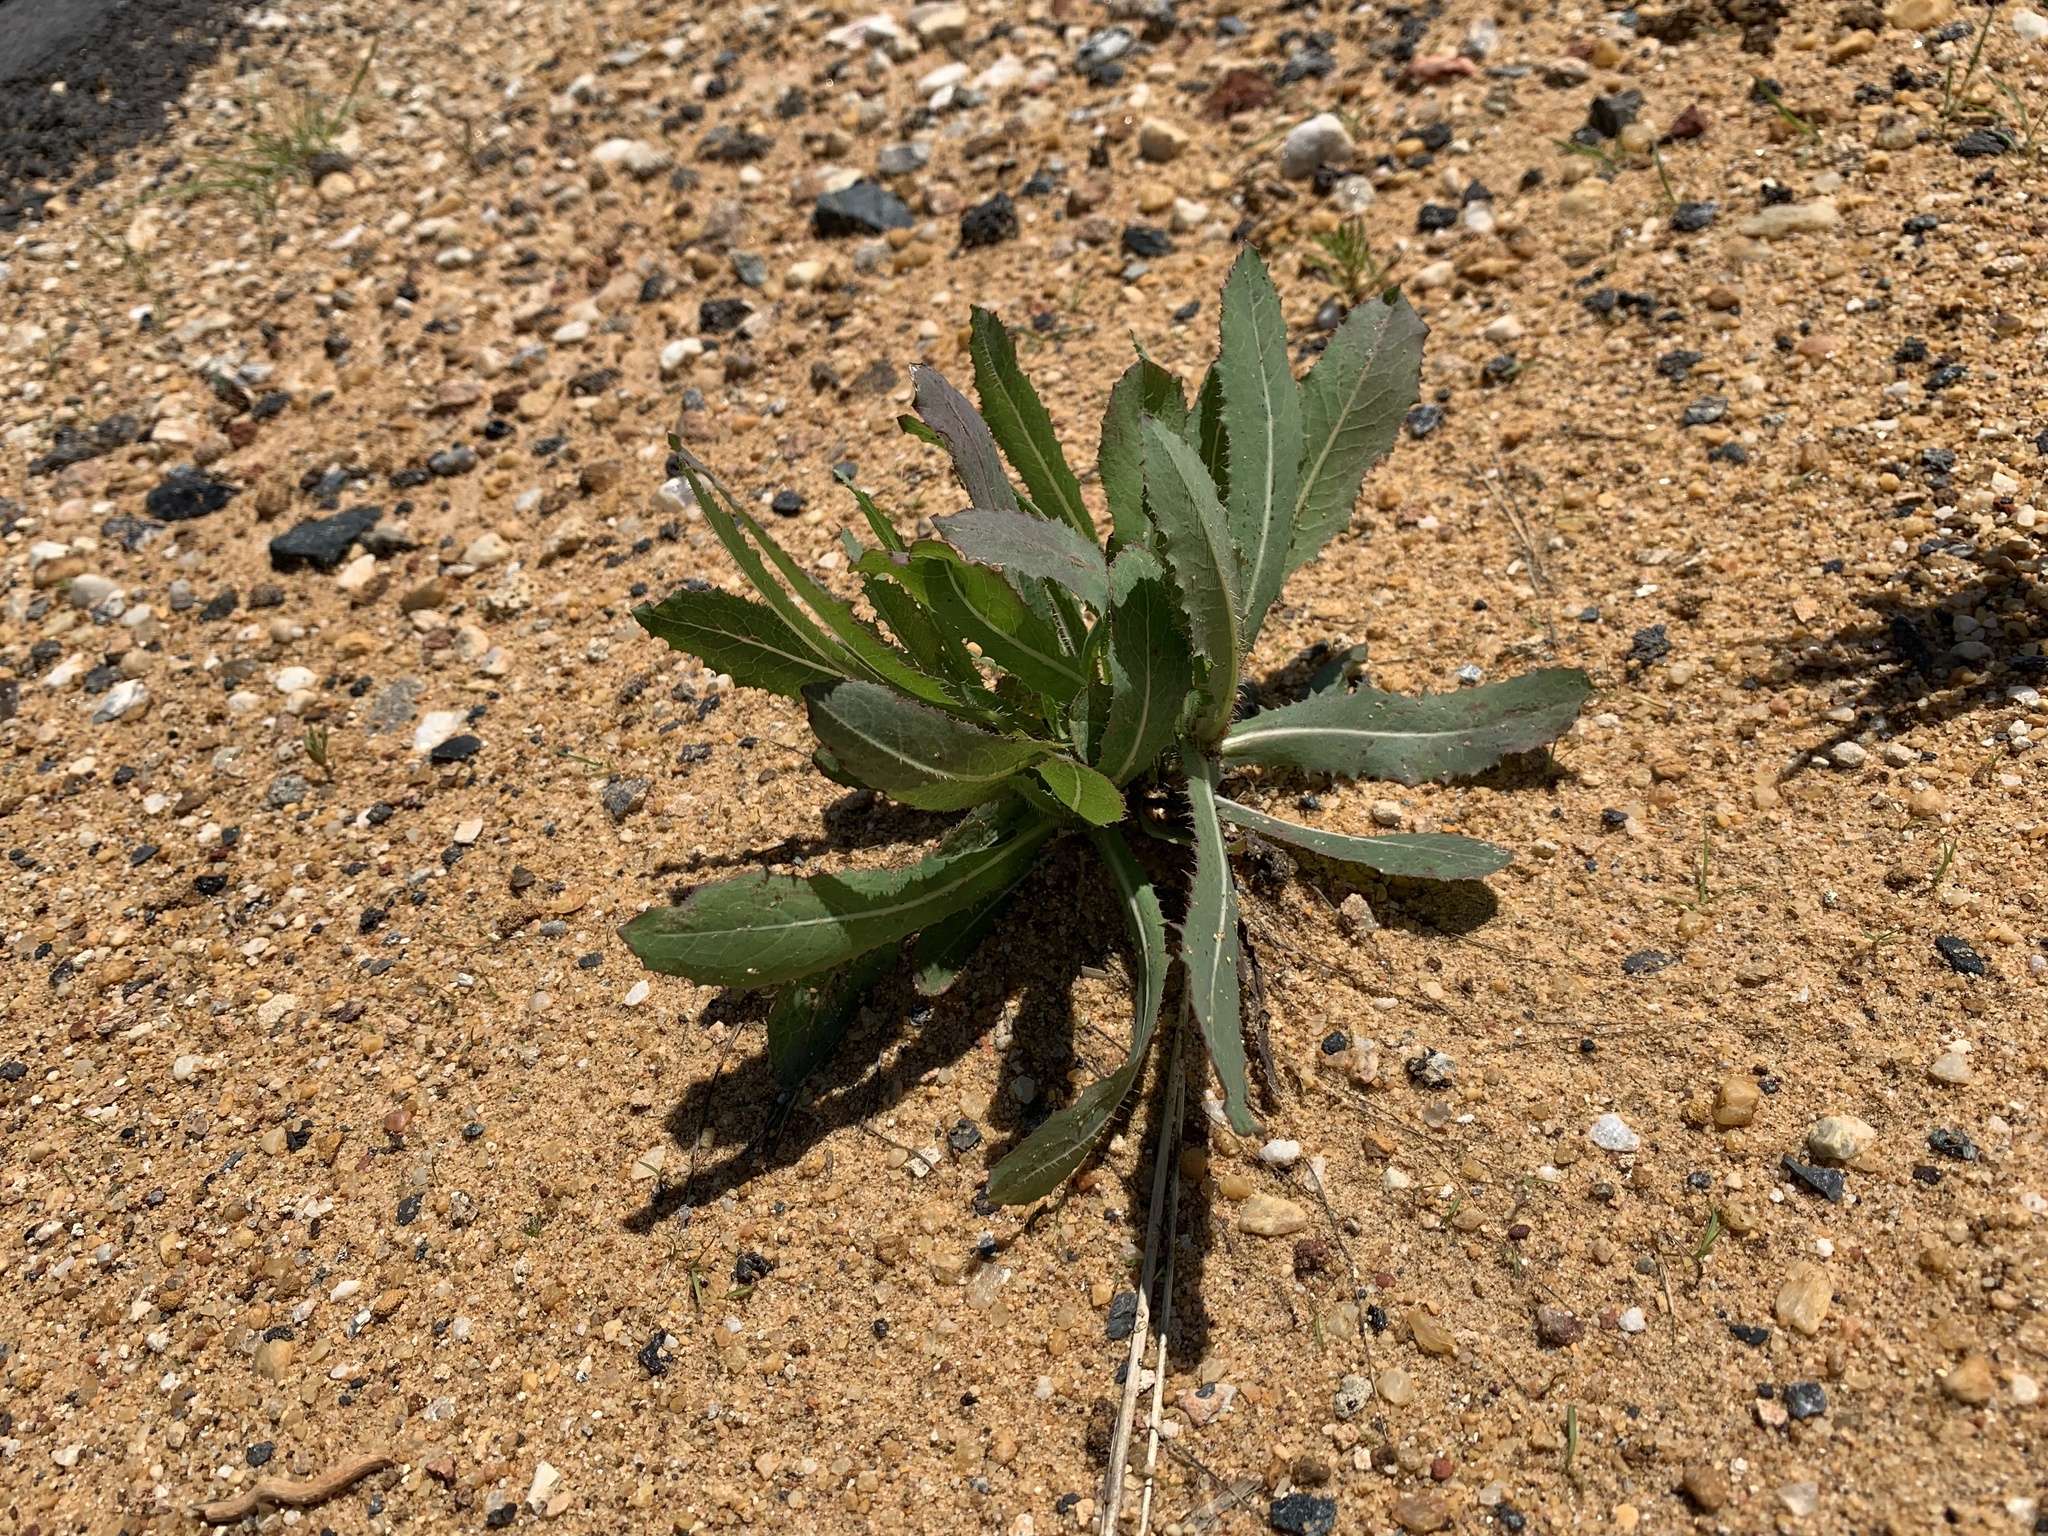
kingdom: Plantae
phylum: Tracheophyta
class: Magnoliopsida
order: Asterales
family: Asteraceae
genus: Lactuca
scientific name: Lactuca serriola
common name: Prickly lettuce
